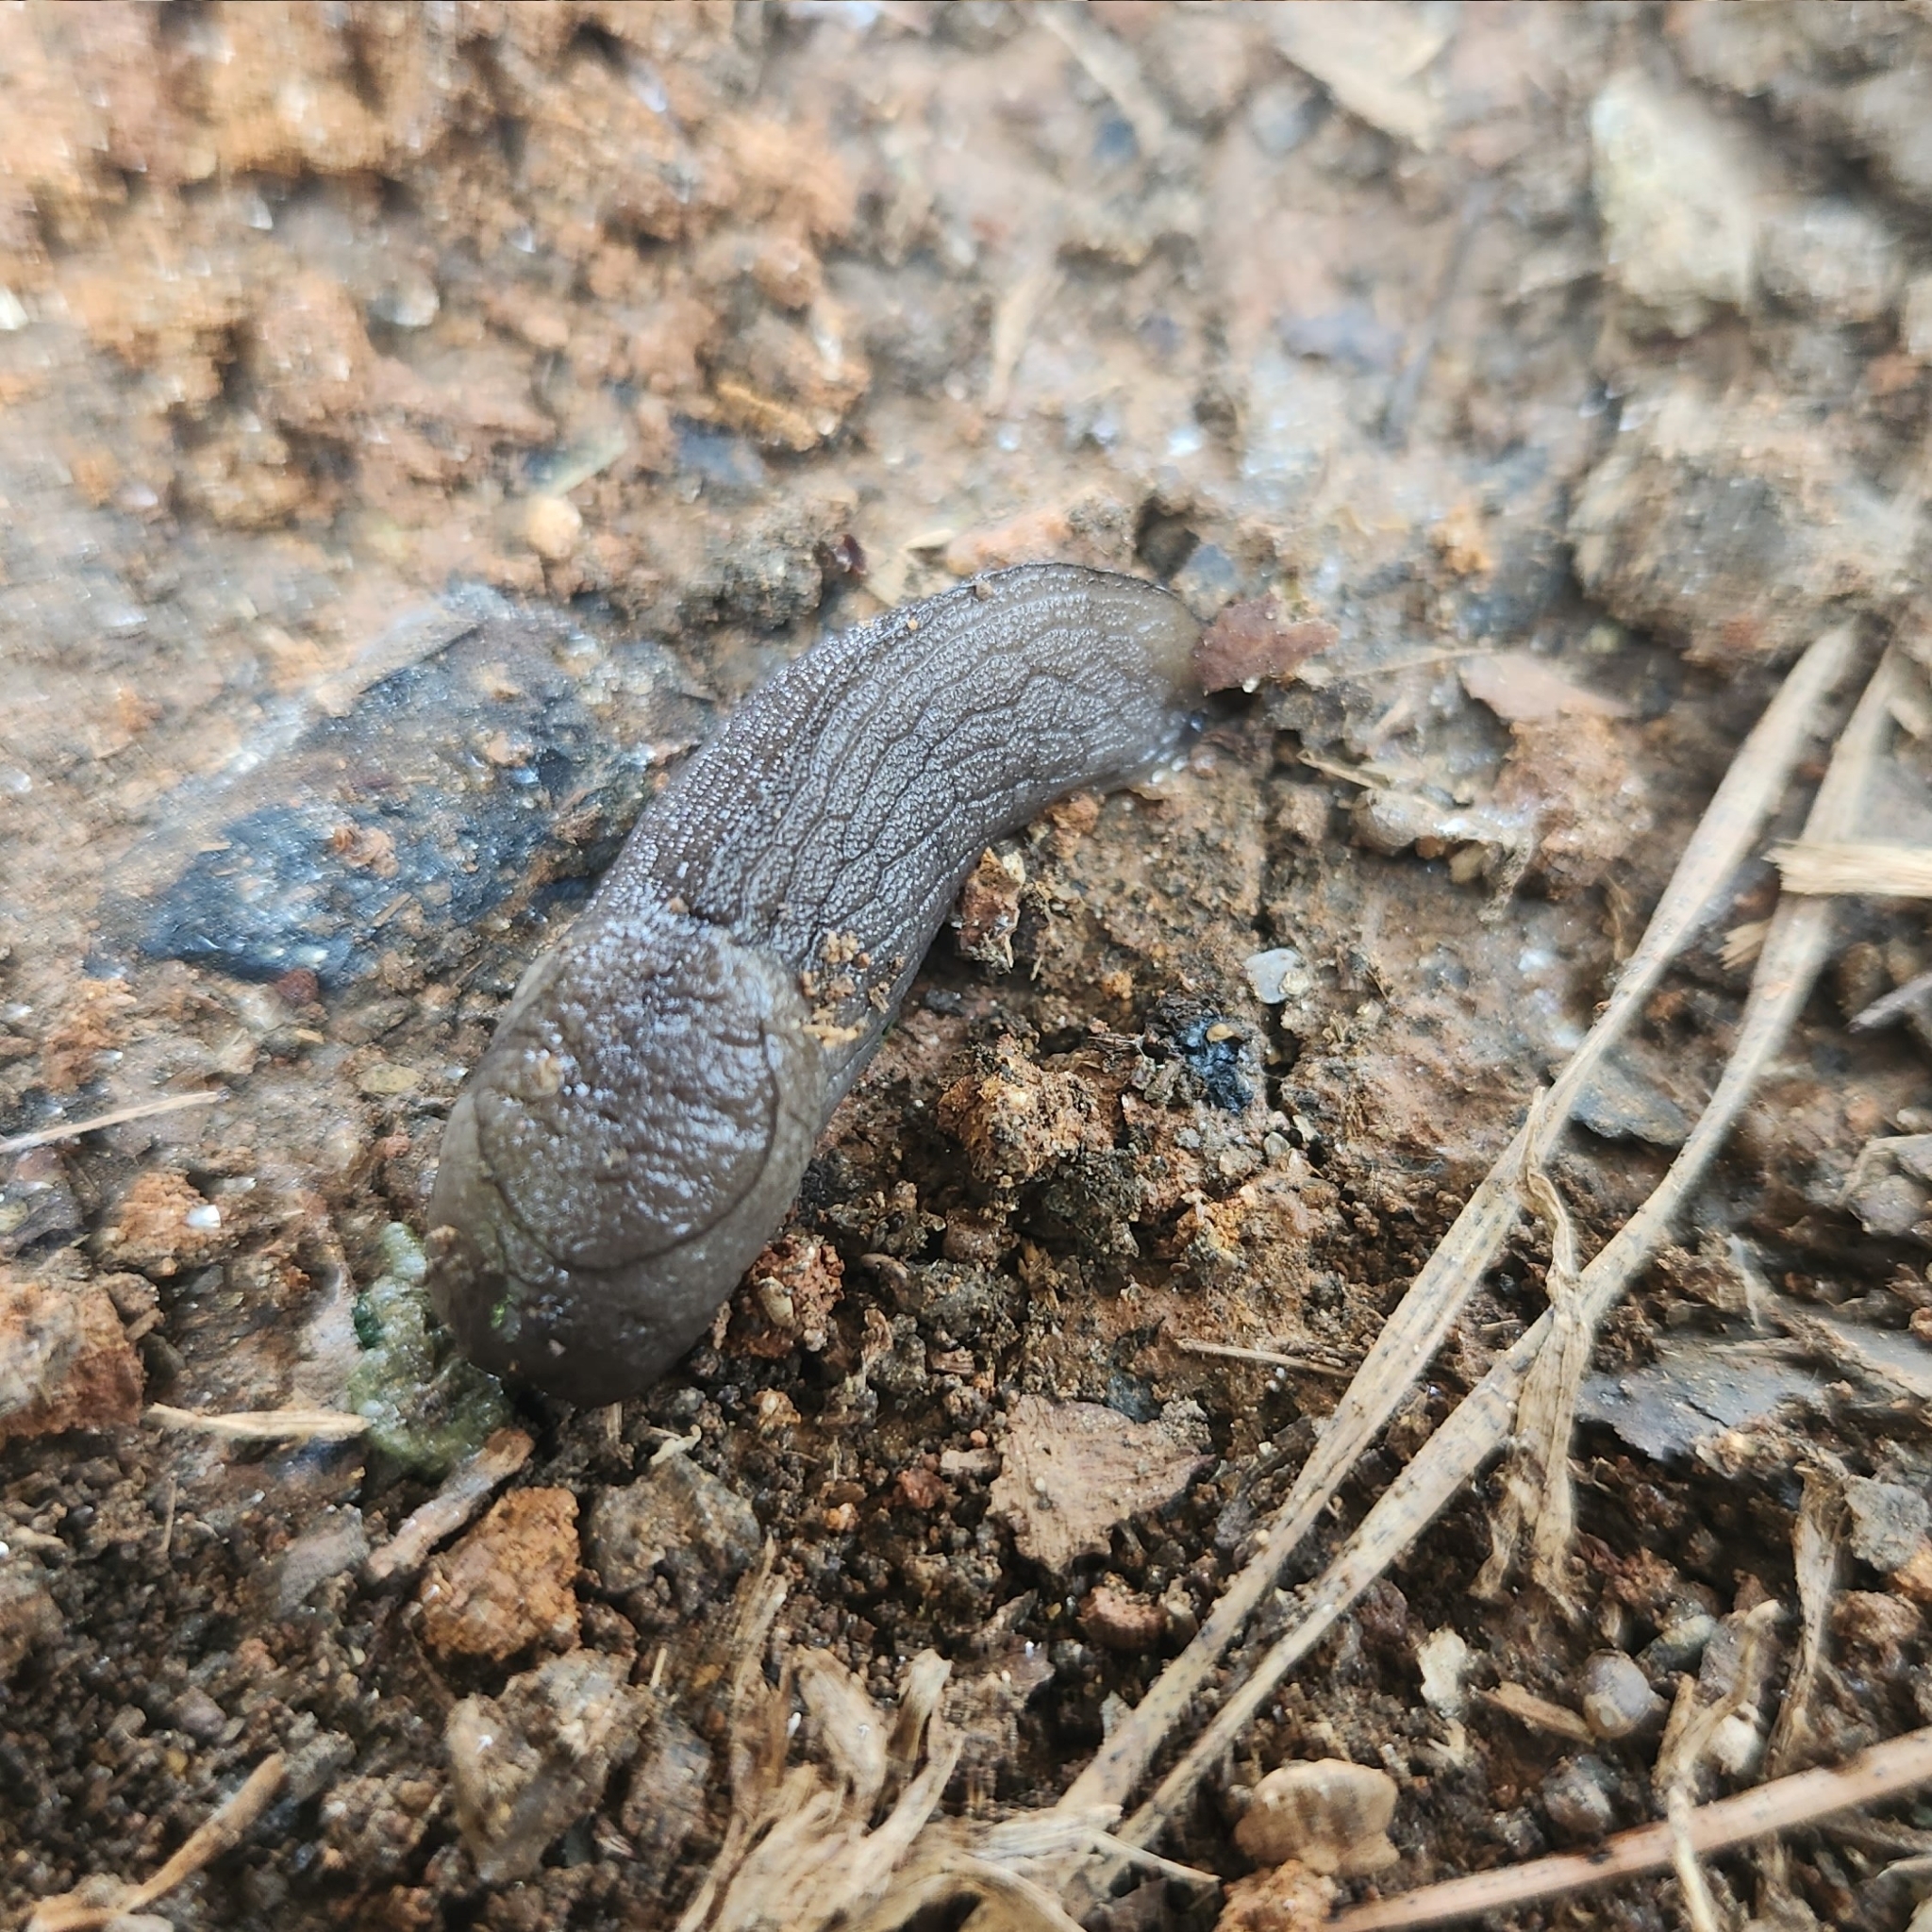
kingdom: Animalia
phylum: Mollusca
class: Gastropoda
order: Stylommatophora
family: Milacidae
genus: Milax
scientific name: Milax gagates
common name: Greenhouse slug
